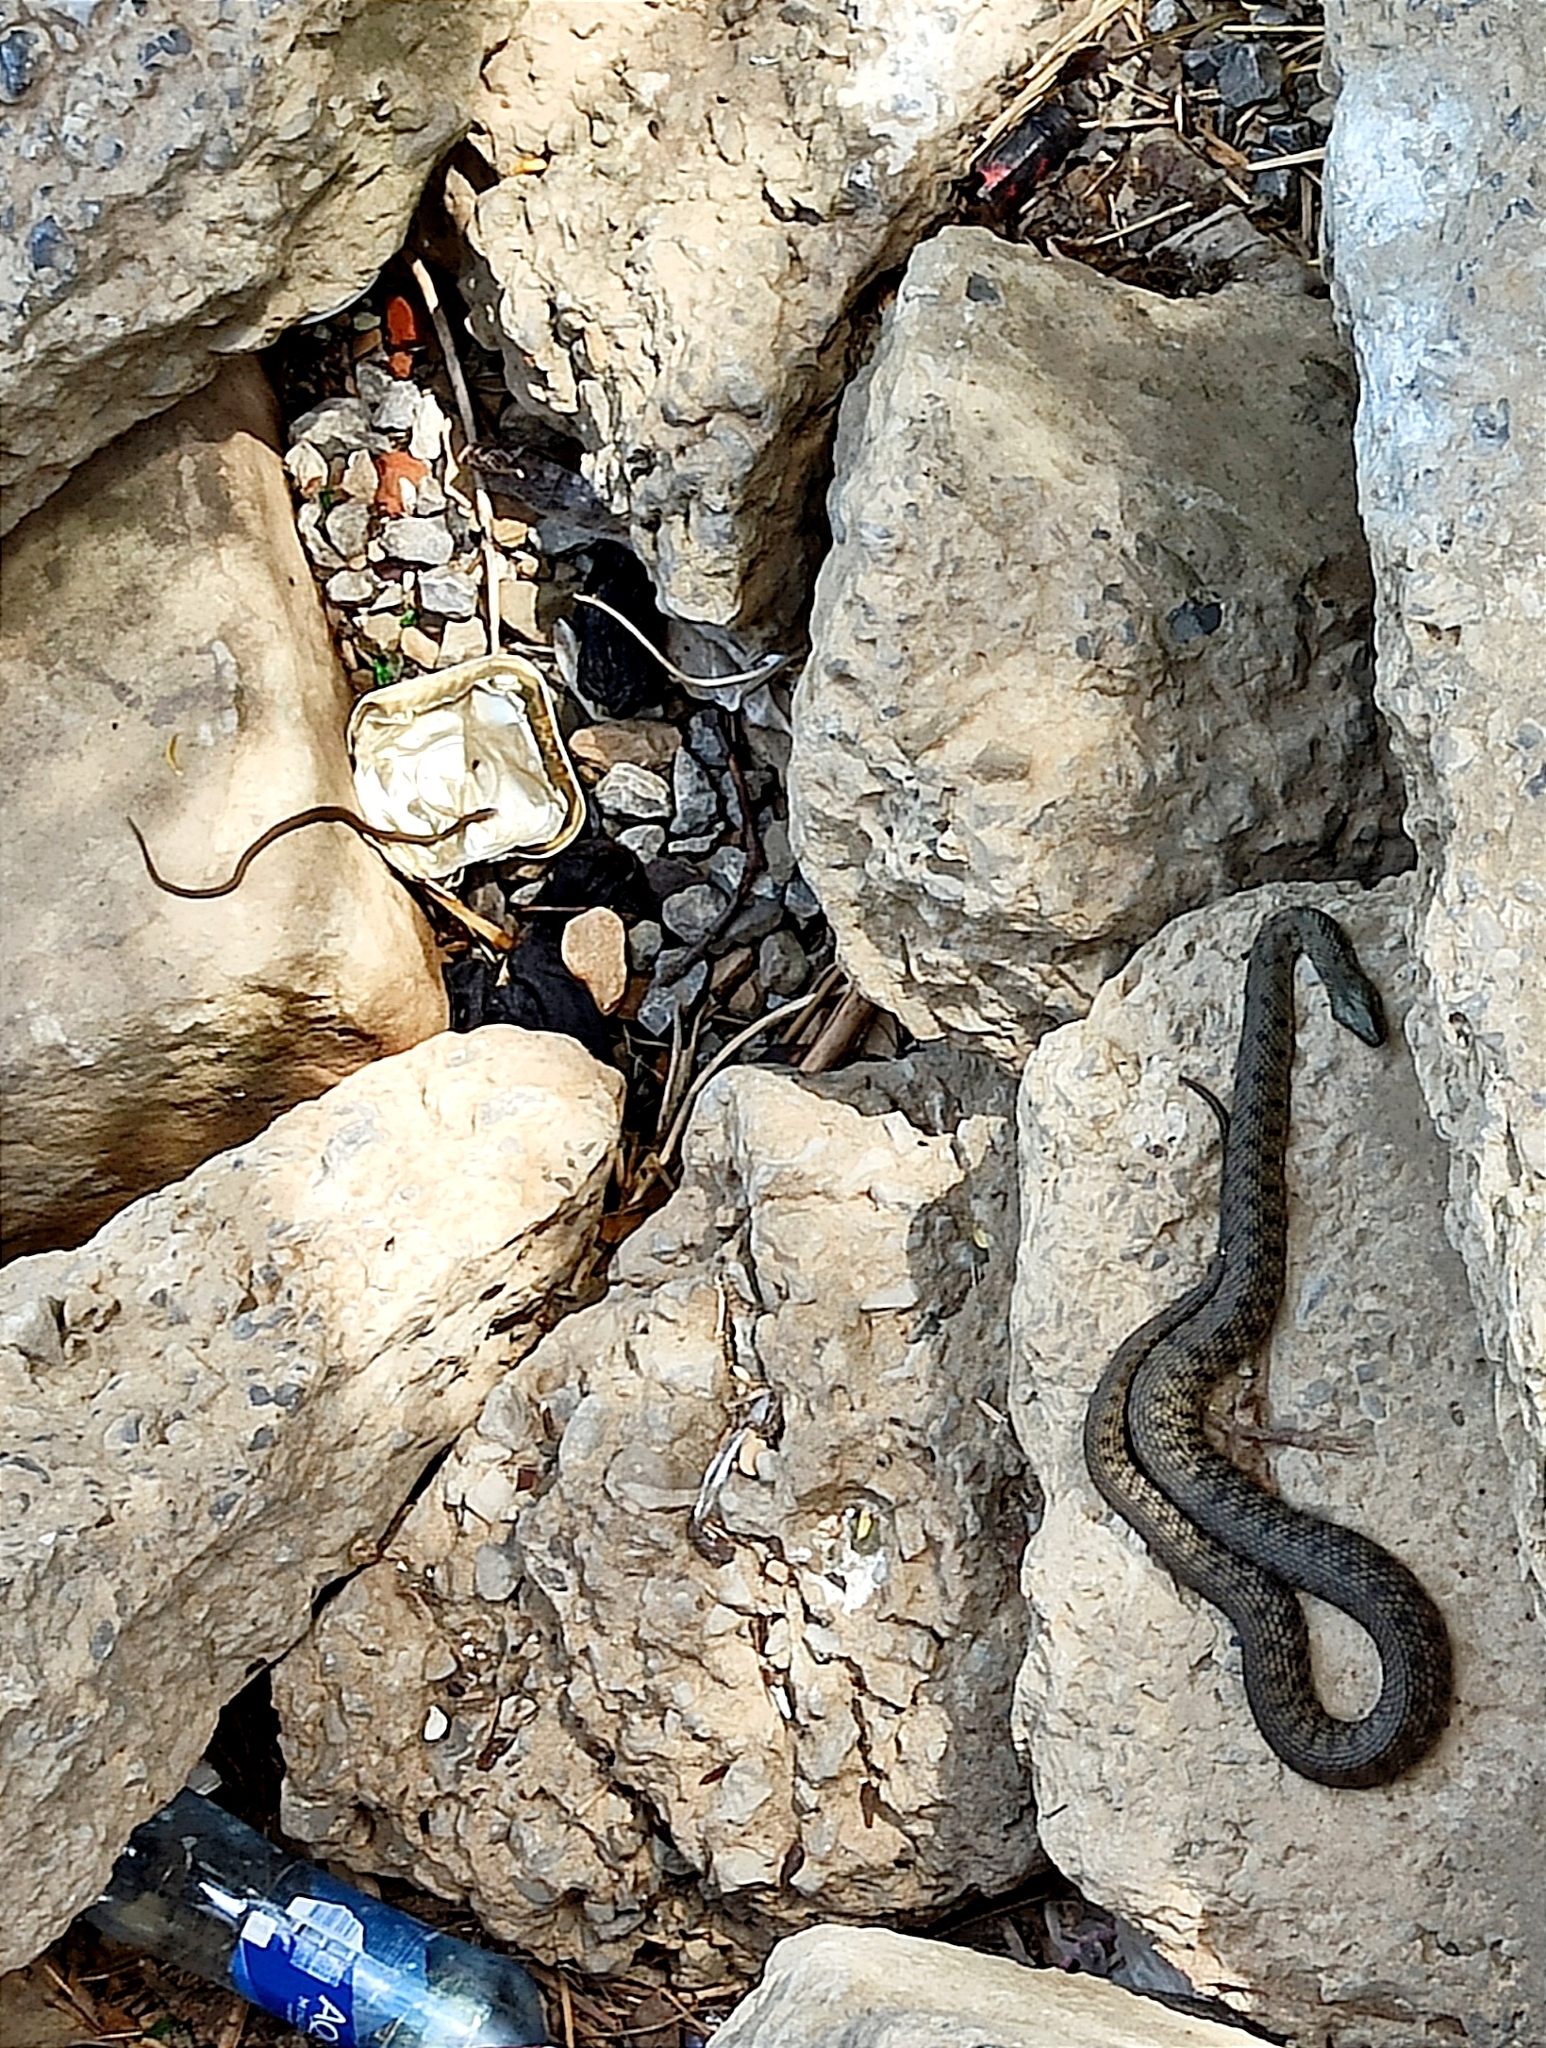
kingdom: Animalia
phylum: Chordata
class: Squamata
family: Colubridae
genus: Natrix
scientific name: Natrix tessellata
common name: Dice snake
